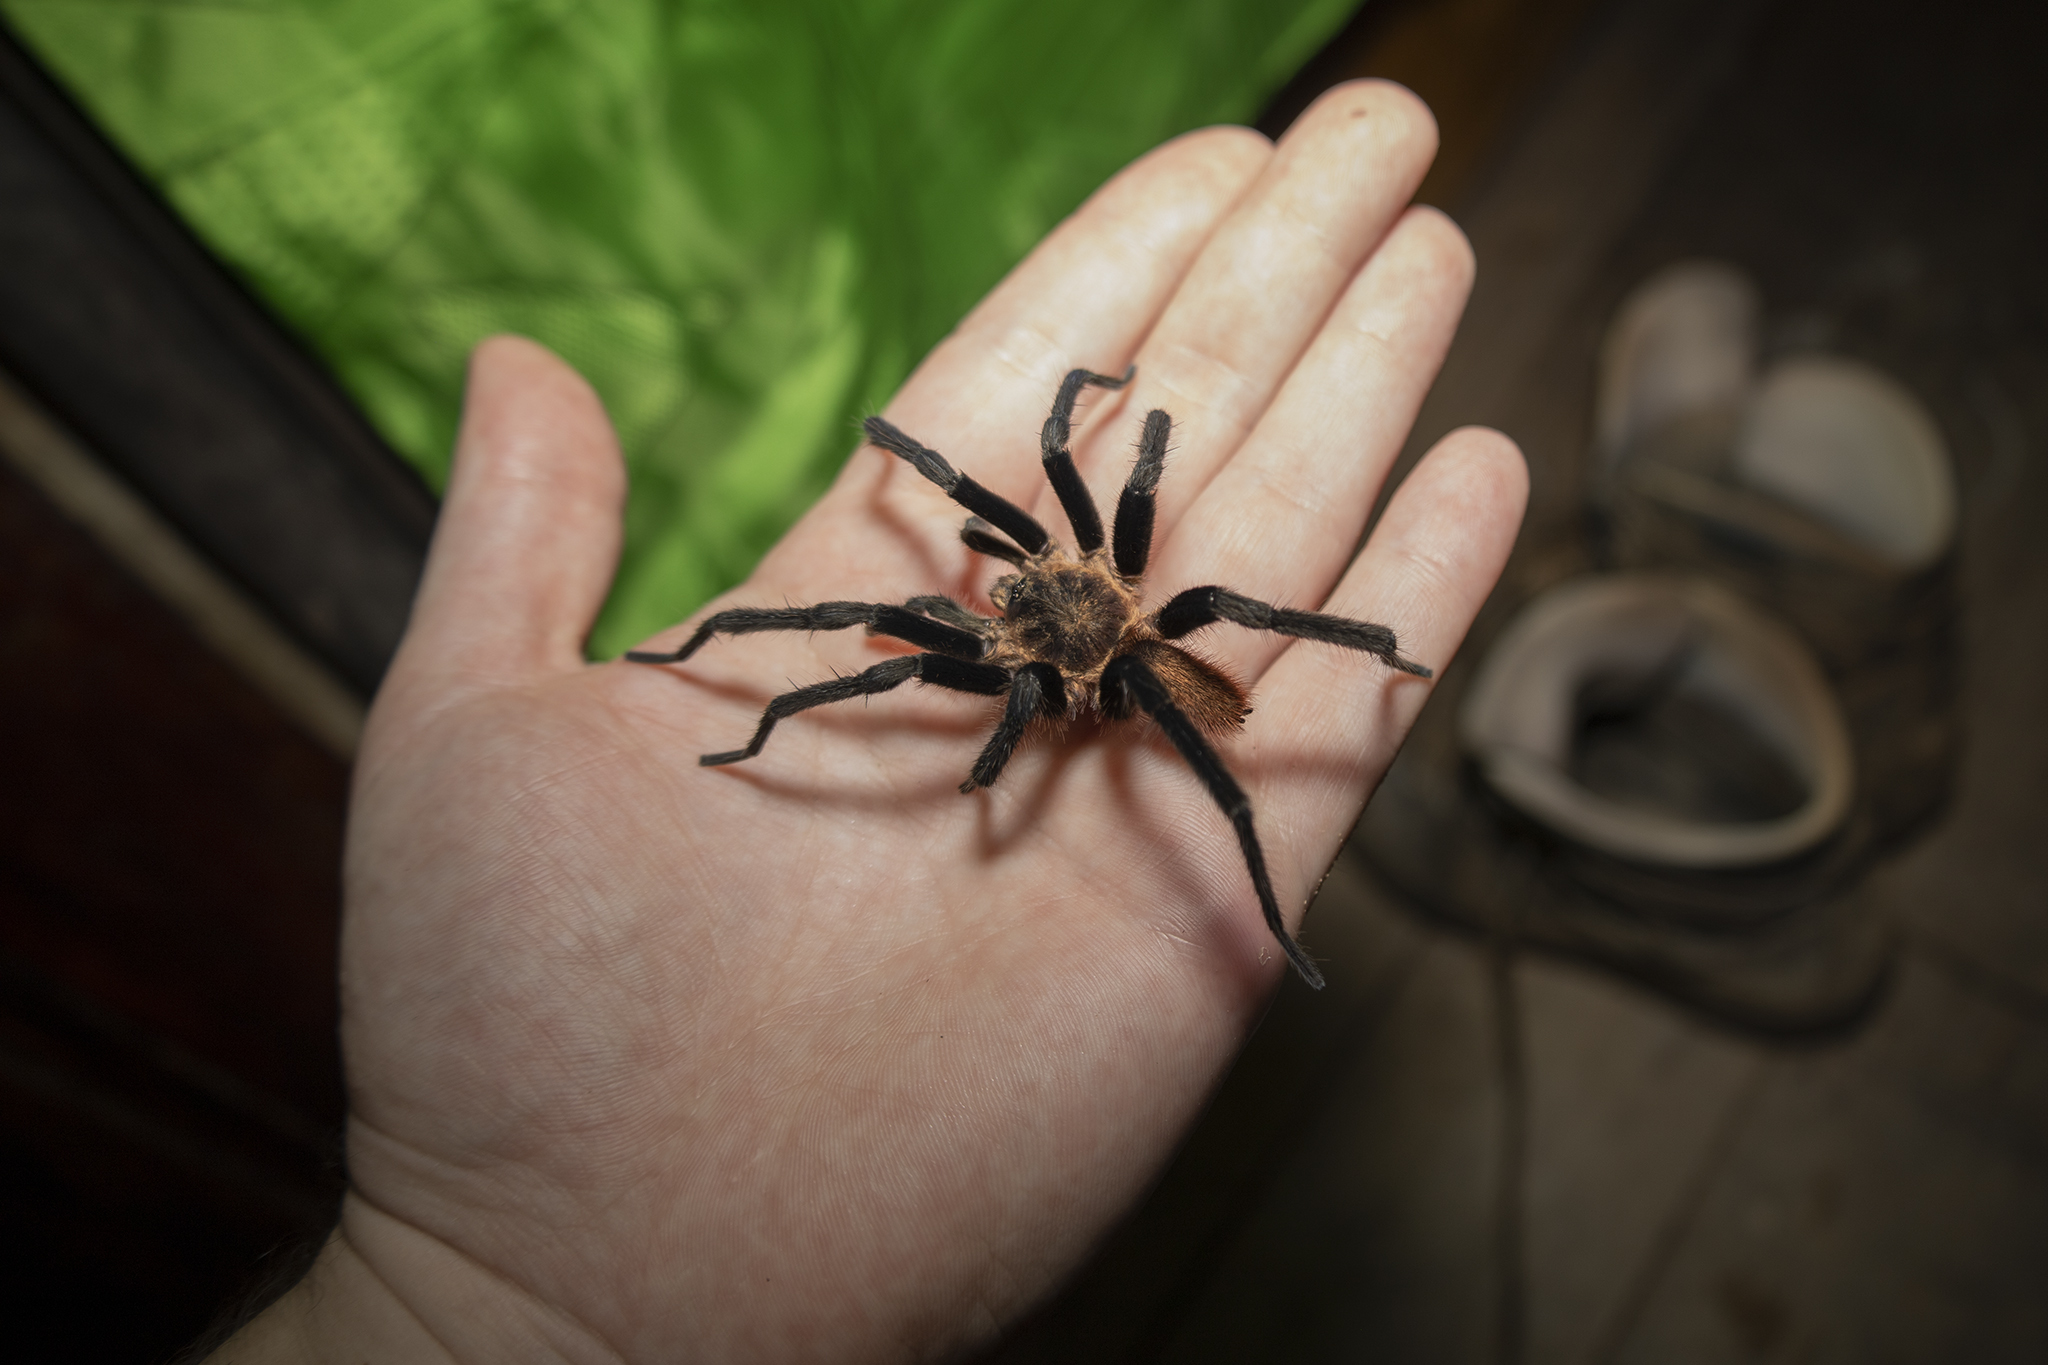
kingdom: Animalia
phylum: Arthropoda
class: Arachnida
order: Araneae
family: Theraphosidae
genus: Holothele
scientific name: Holothele longipes
